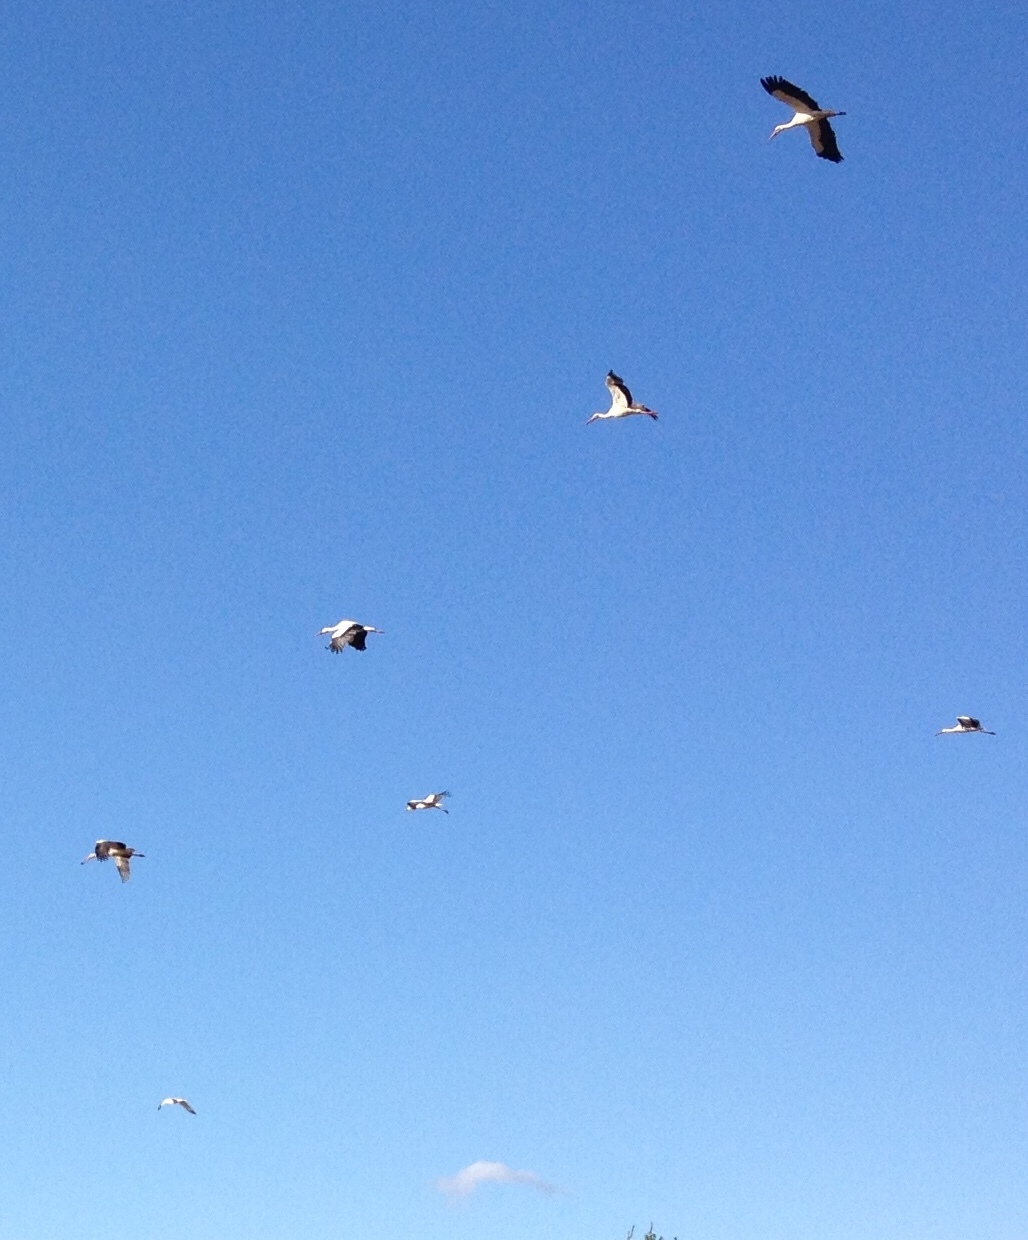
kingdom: Animalia
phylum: Chordata
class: Aves
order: Ciconiiformes
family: Ciconiidae
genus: Ciconia
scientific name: Ciconia ciconia
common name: White stork
